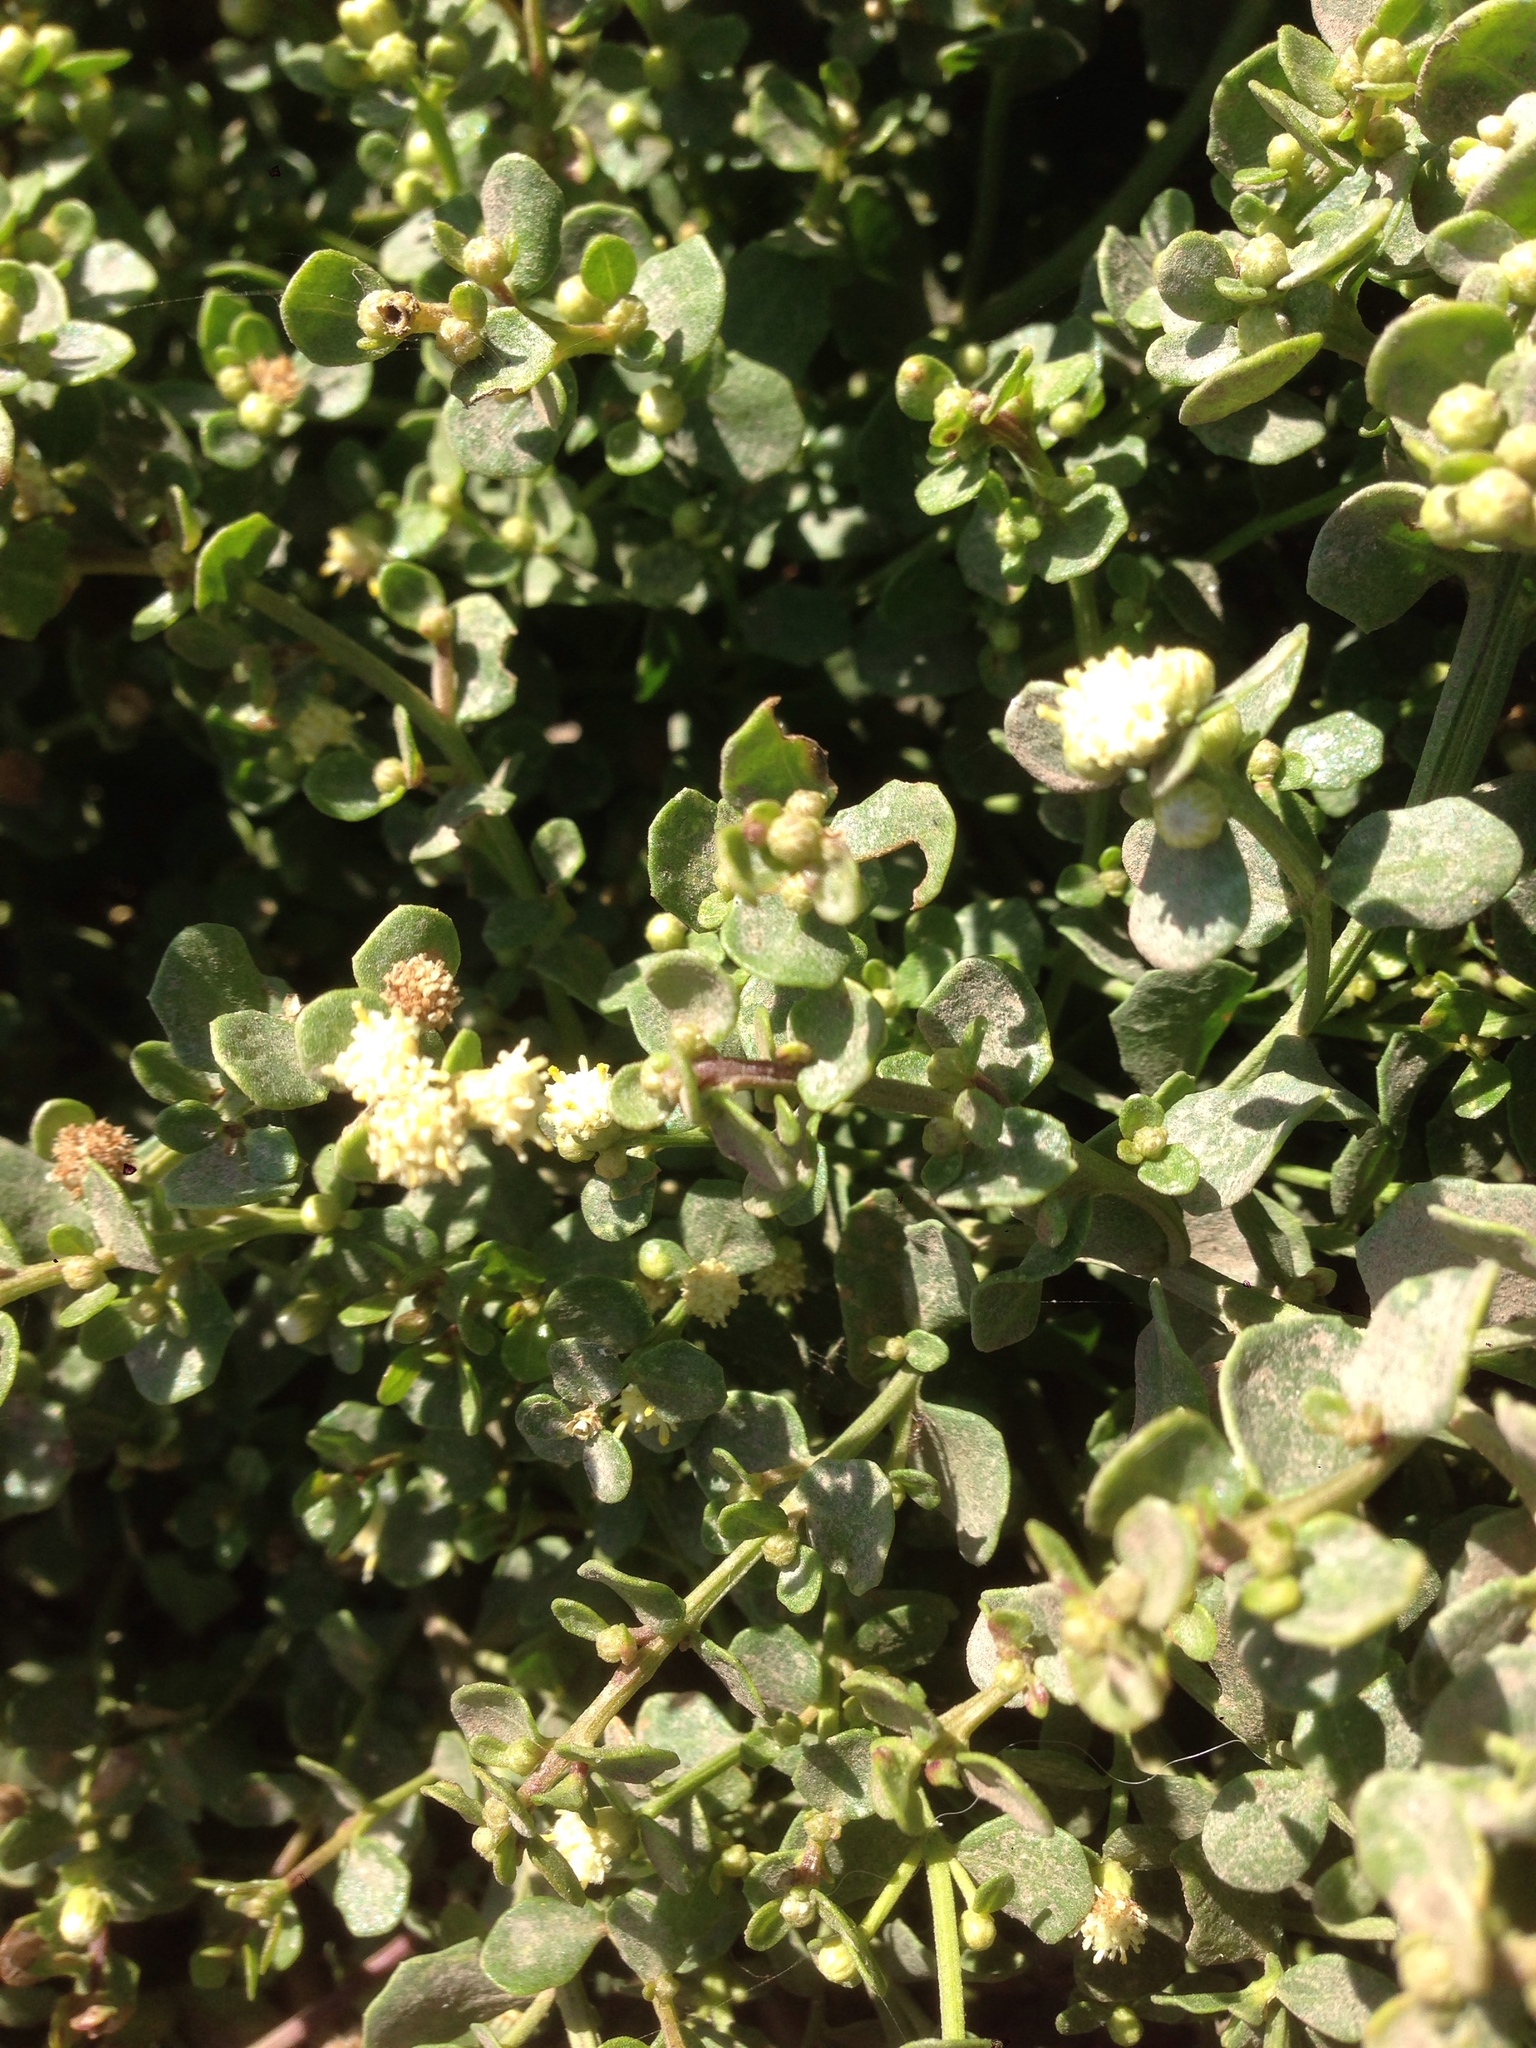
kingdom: Plantae
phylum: Tracheophyta
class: Magnoliopsida
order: Asterales
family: Asteraceae
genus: Baccharis
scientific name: Baccharis pilularis
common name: Coyotebrush
